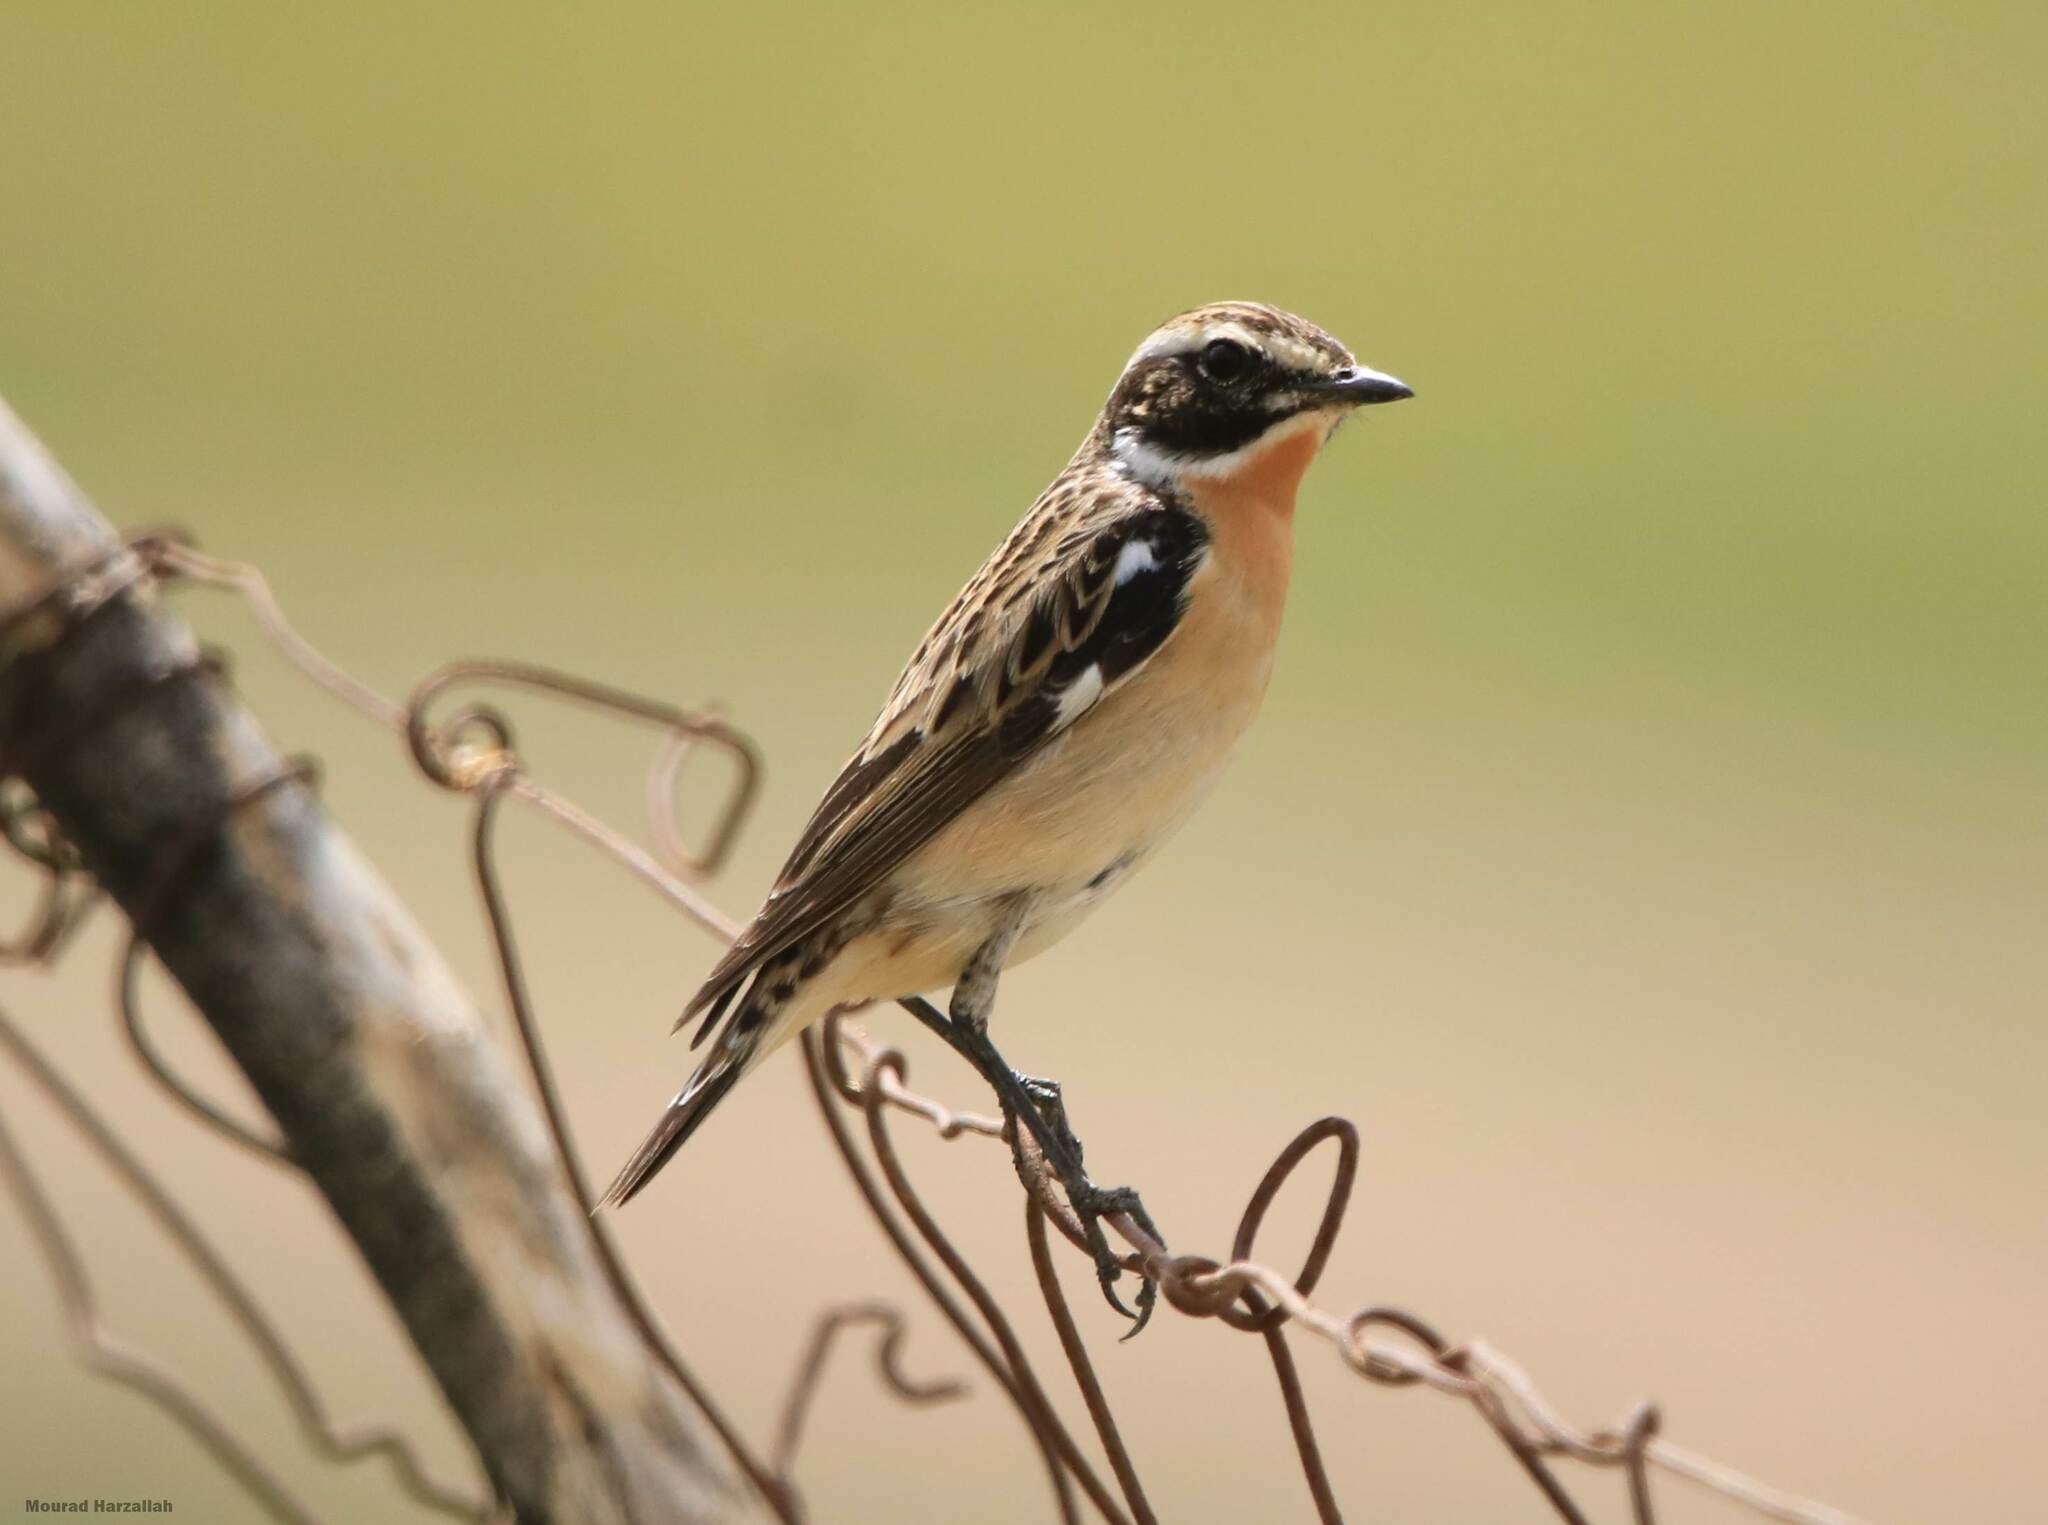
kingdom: Animalia
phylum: Chordata
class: Aves
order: Passeriformes
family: Muscicapidae
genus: Saxicola
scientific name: Saxicola rubetra
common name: Whinchat
